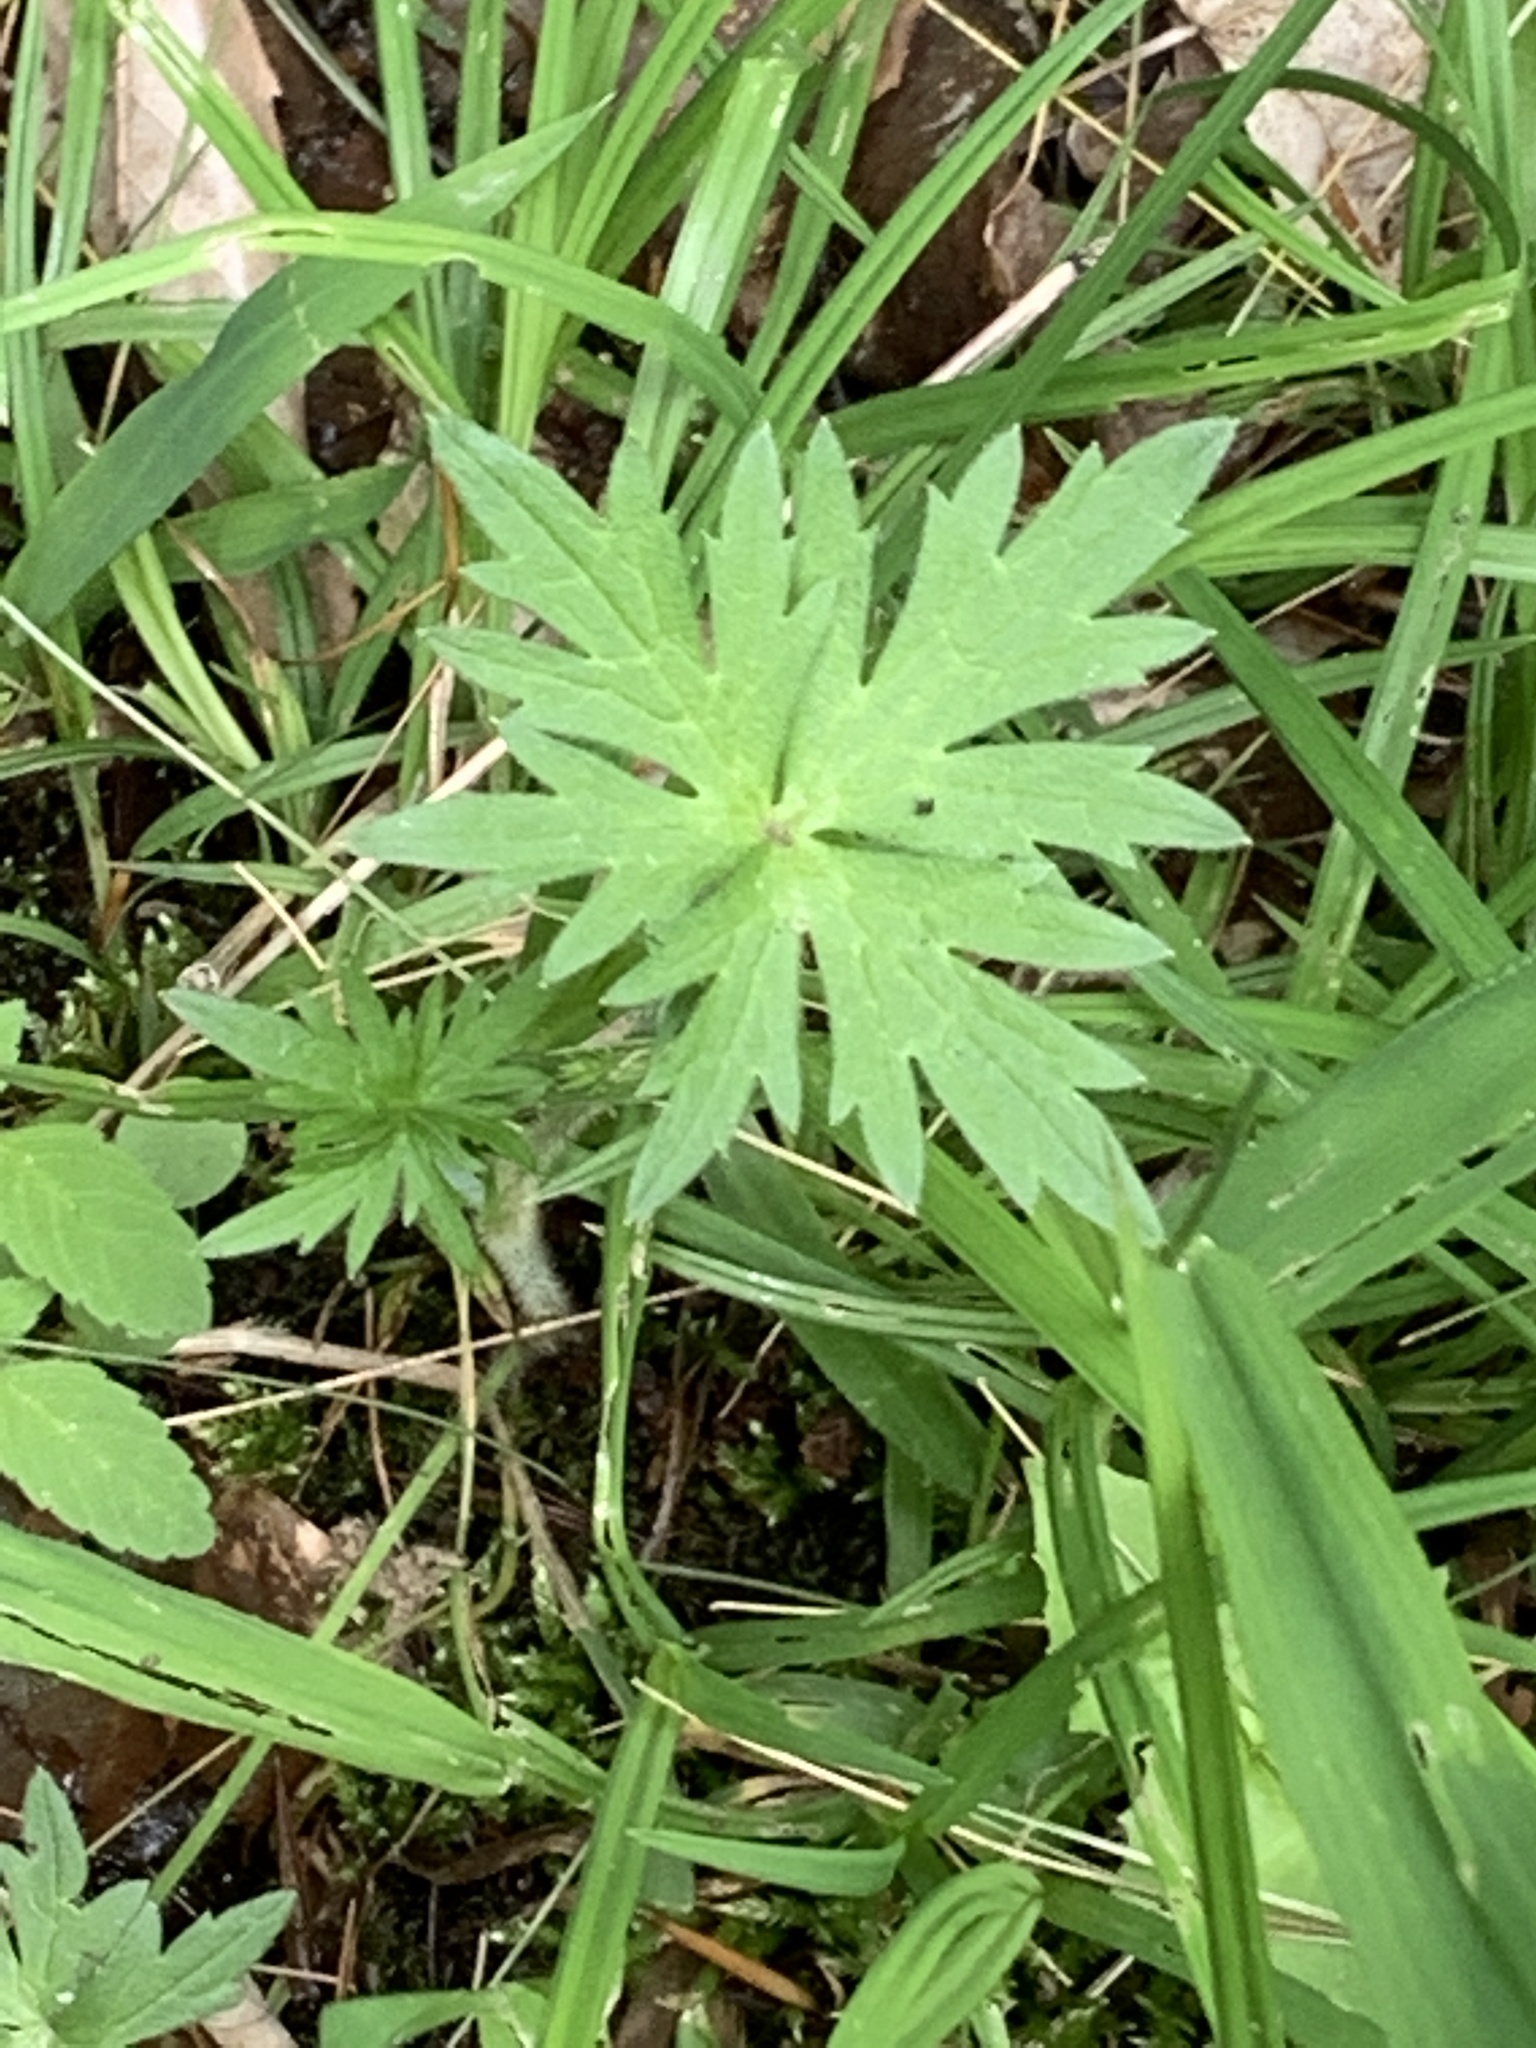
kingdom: Plantae
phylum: Tracheophyta
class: Magnoliopsida
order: Ranunculales
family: Ranunculaceae
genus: Ranunculus
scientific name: Ranunculus acris
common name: Meadow buttercup
